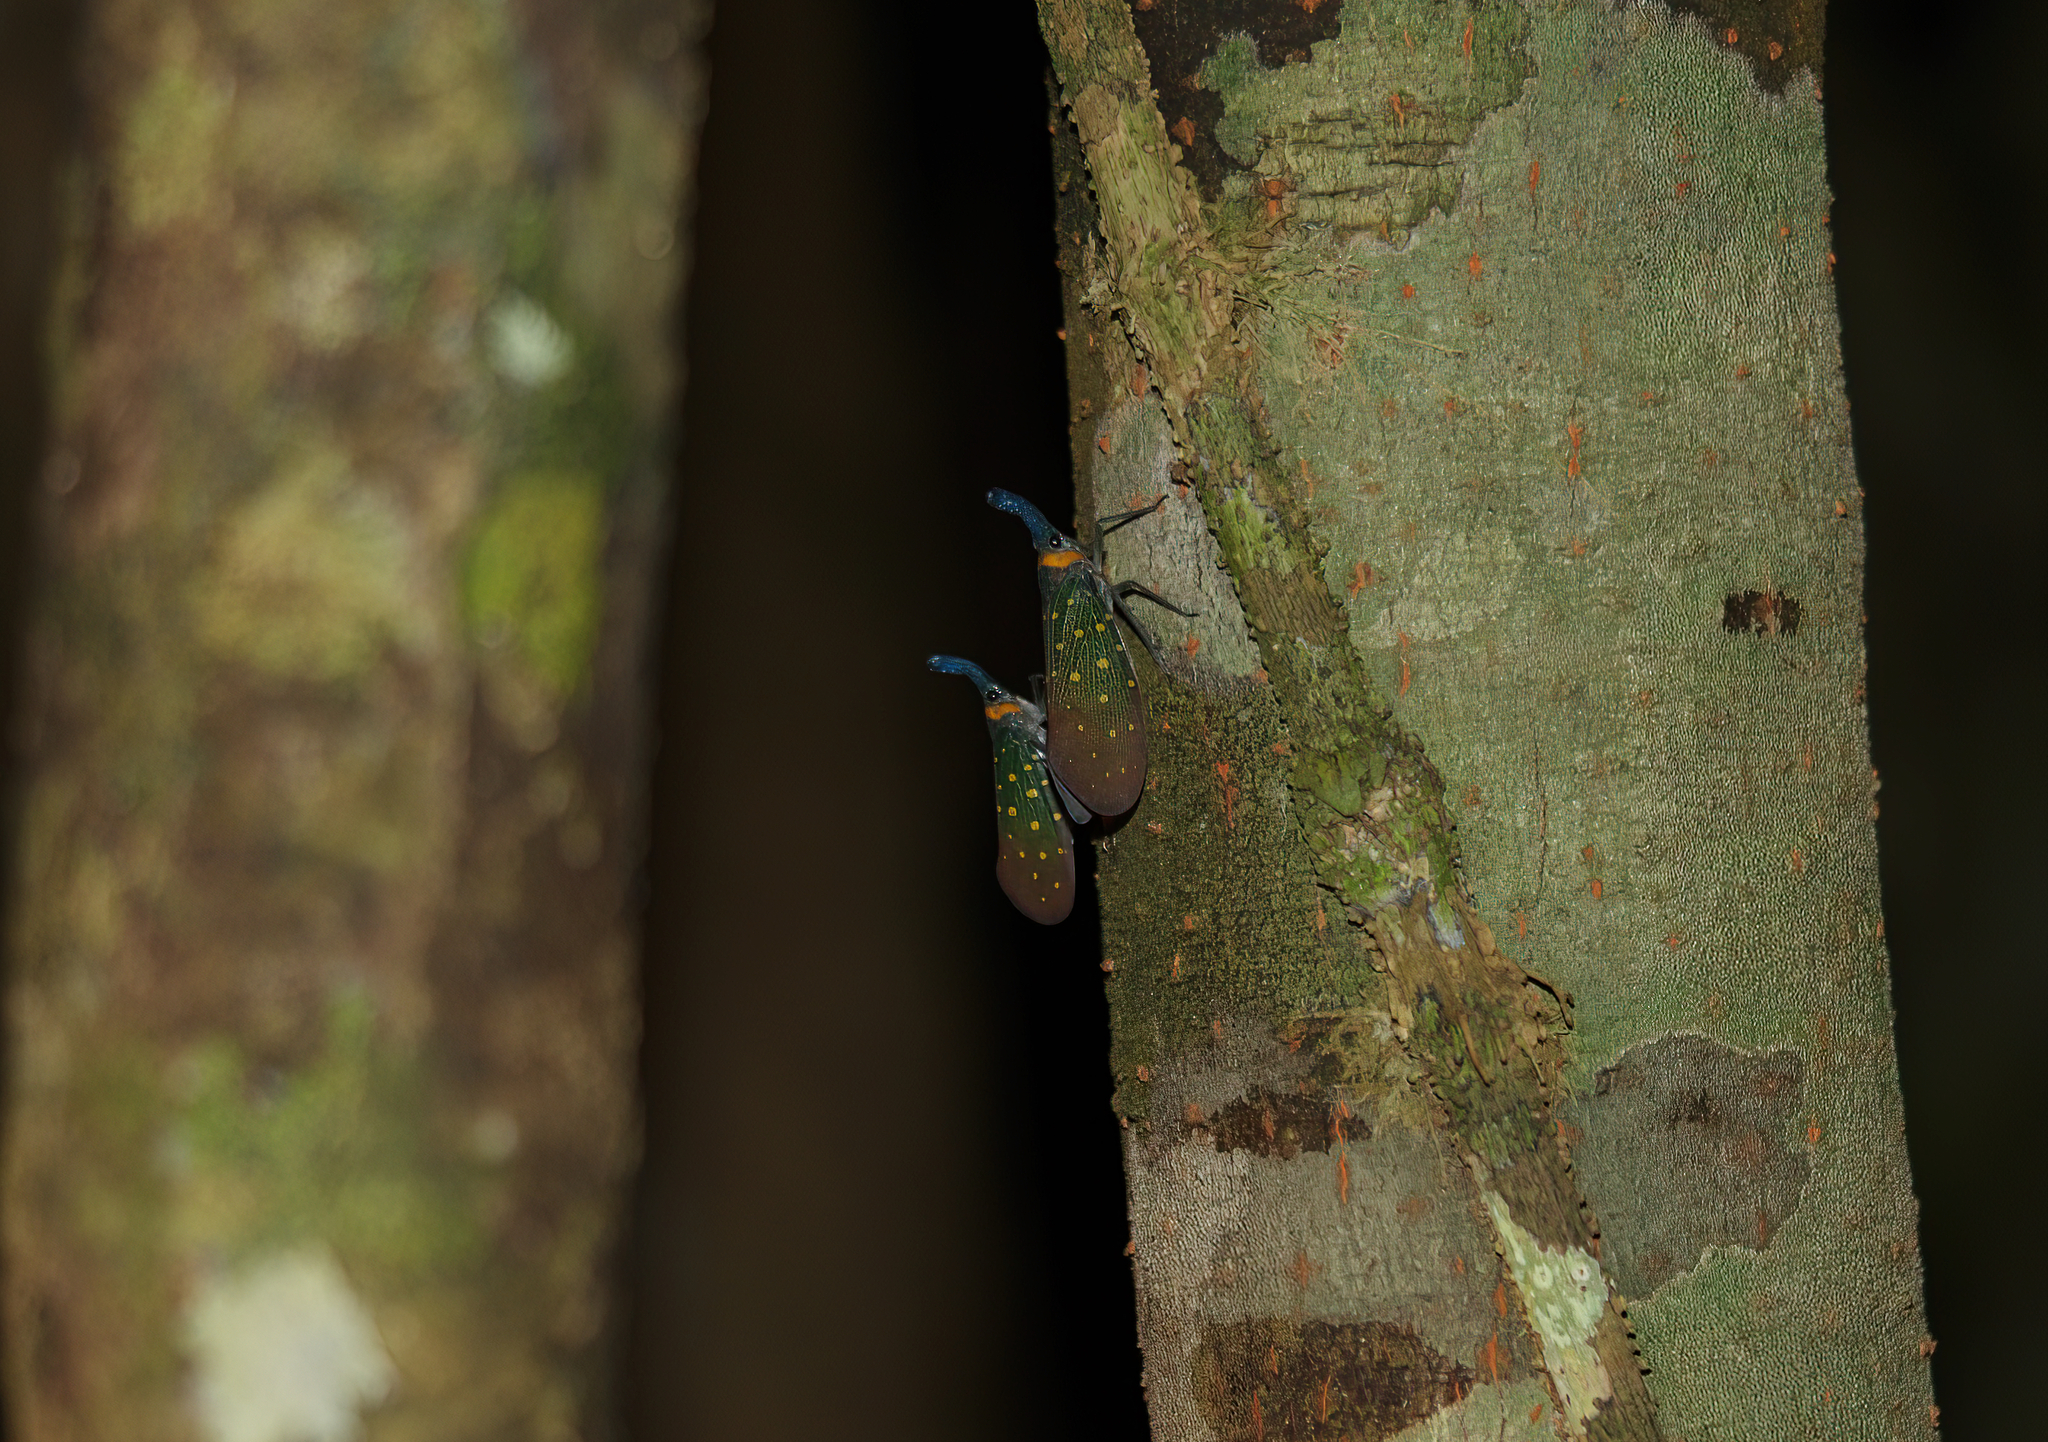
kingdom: Animalia
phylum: Arthropoda
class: Insecta
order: Hemiptera
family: Fulgoridae
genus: Pyrops
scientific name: Pyrops whiteheadi
